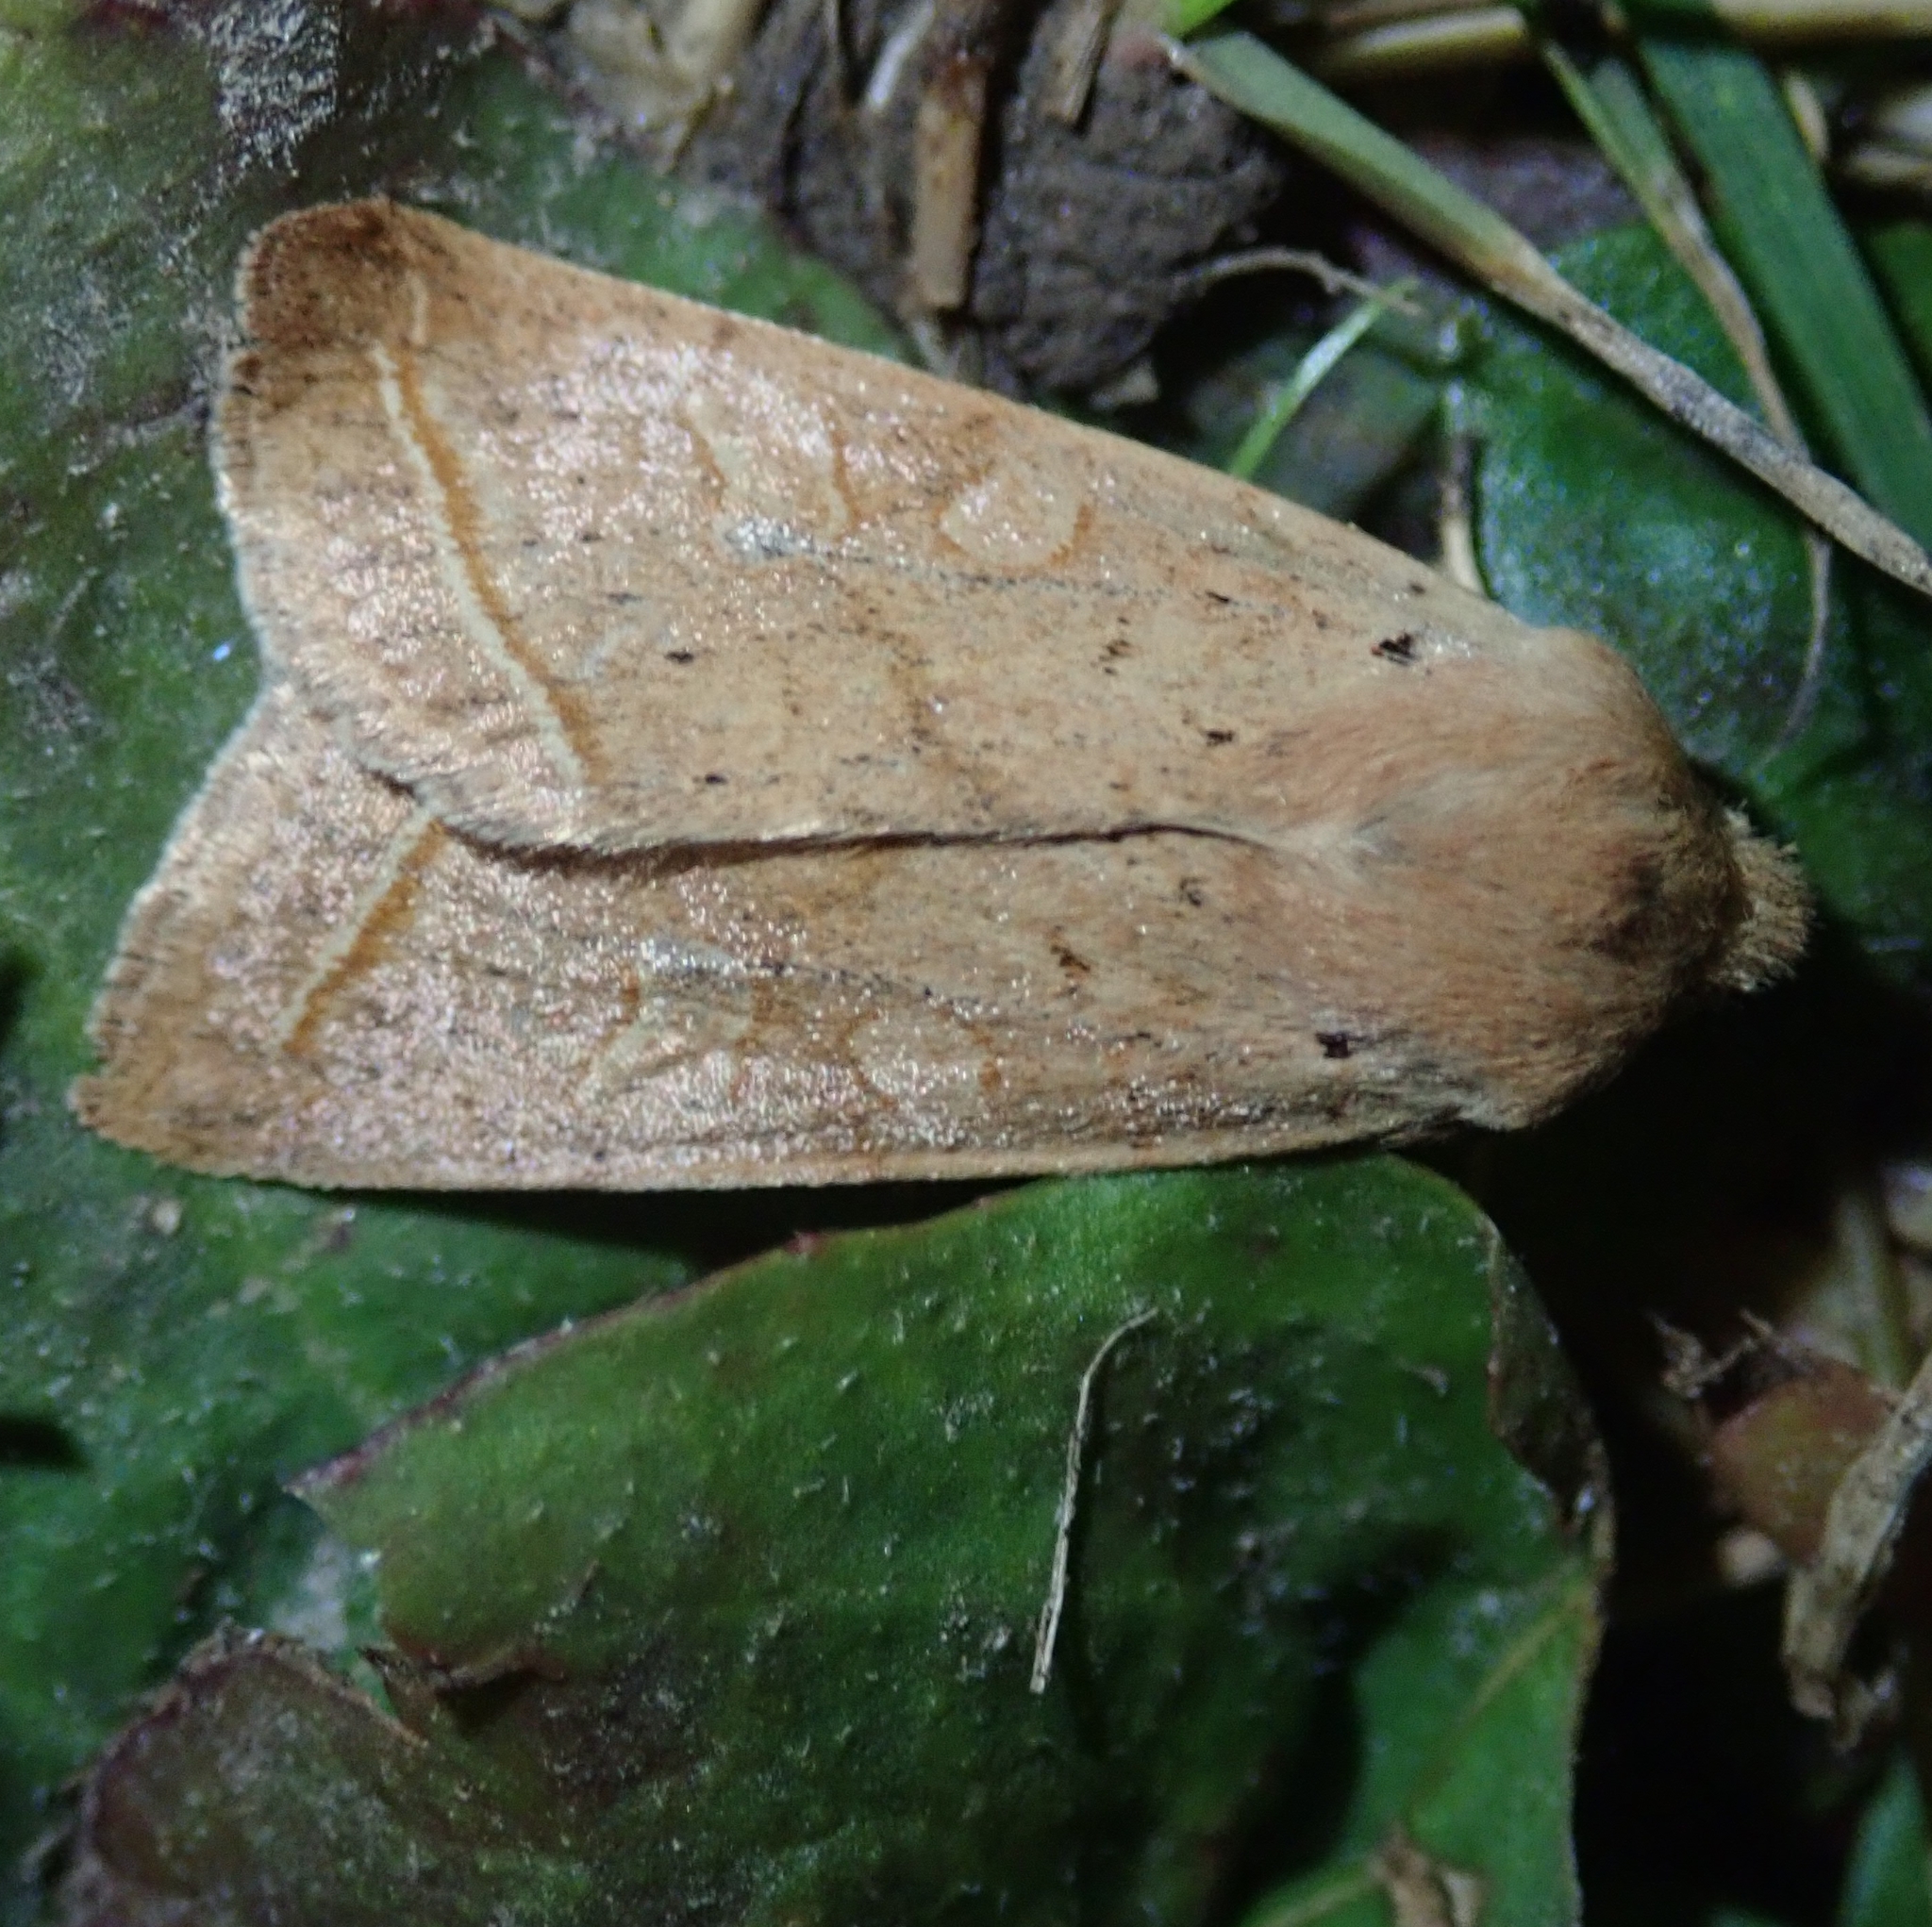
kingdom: Animalia
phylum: Arthropoda
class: Insecta
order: Lepidoptera
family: Noctuidae
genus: Agrochola
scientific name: Agrochola macilenta
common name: Yellow-line quaker
